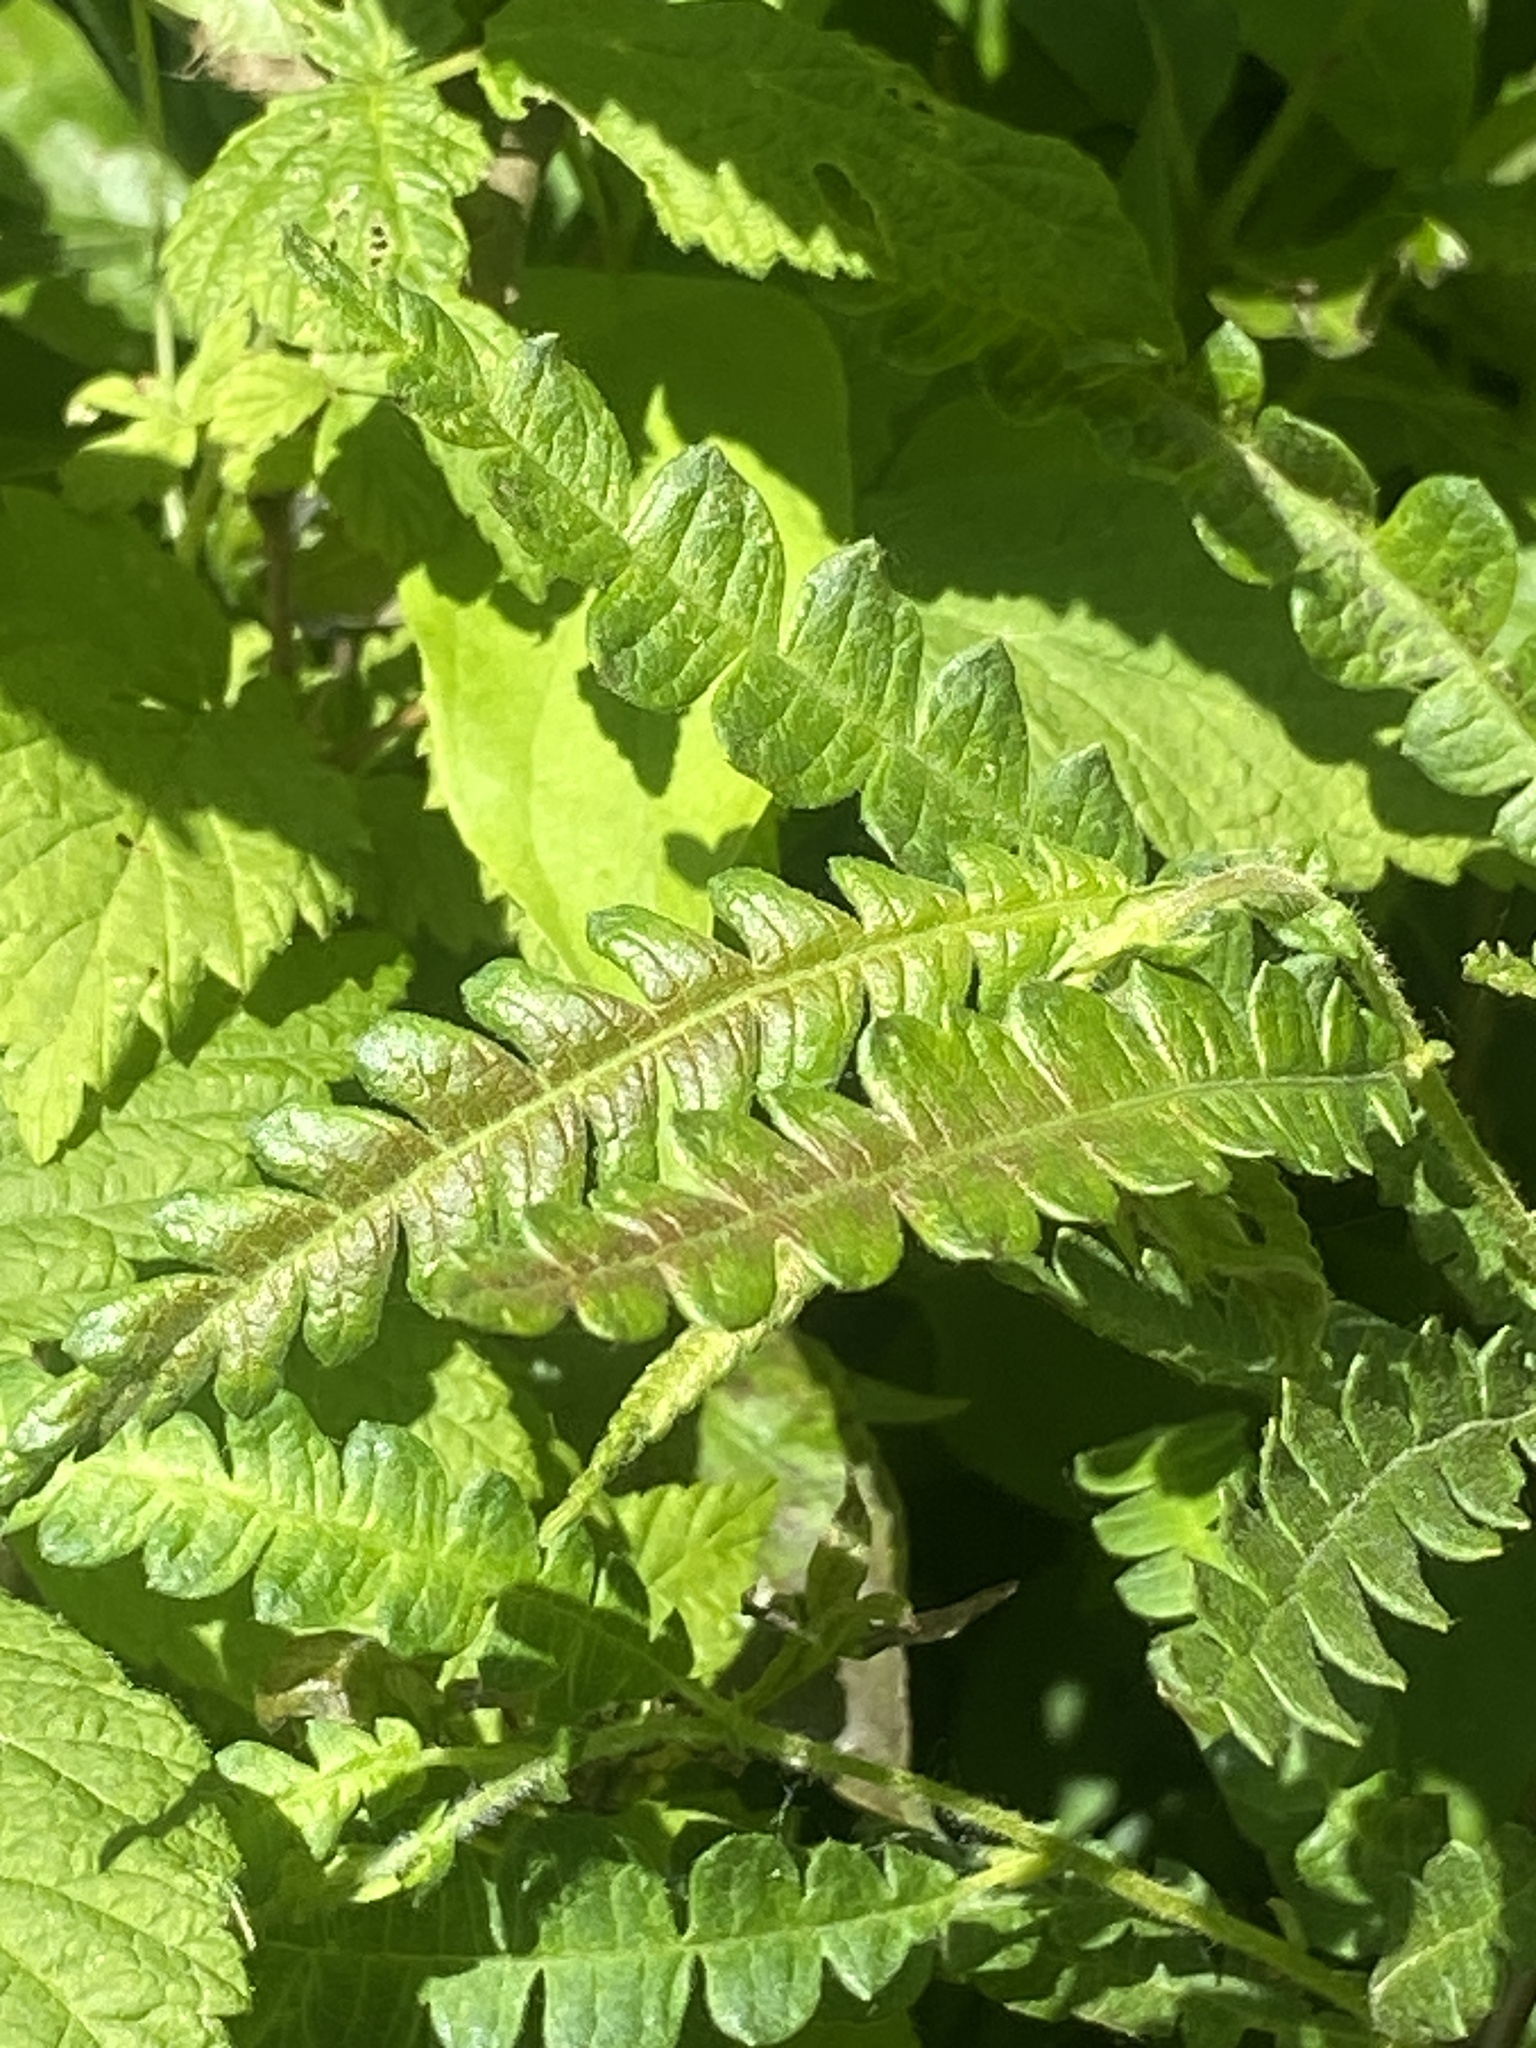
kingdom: Plantae
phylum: Tracheophyta
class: Magnoliopsida
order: Fagales
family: Myricaceae
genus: Comptonia
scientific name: Comptonia peregrina
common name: Sweet-fern
